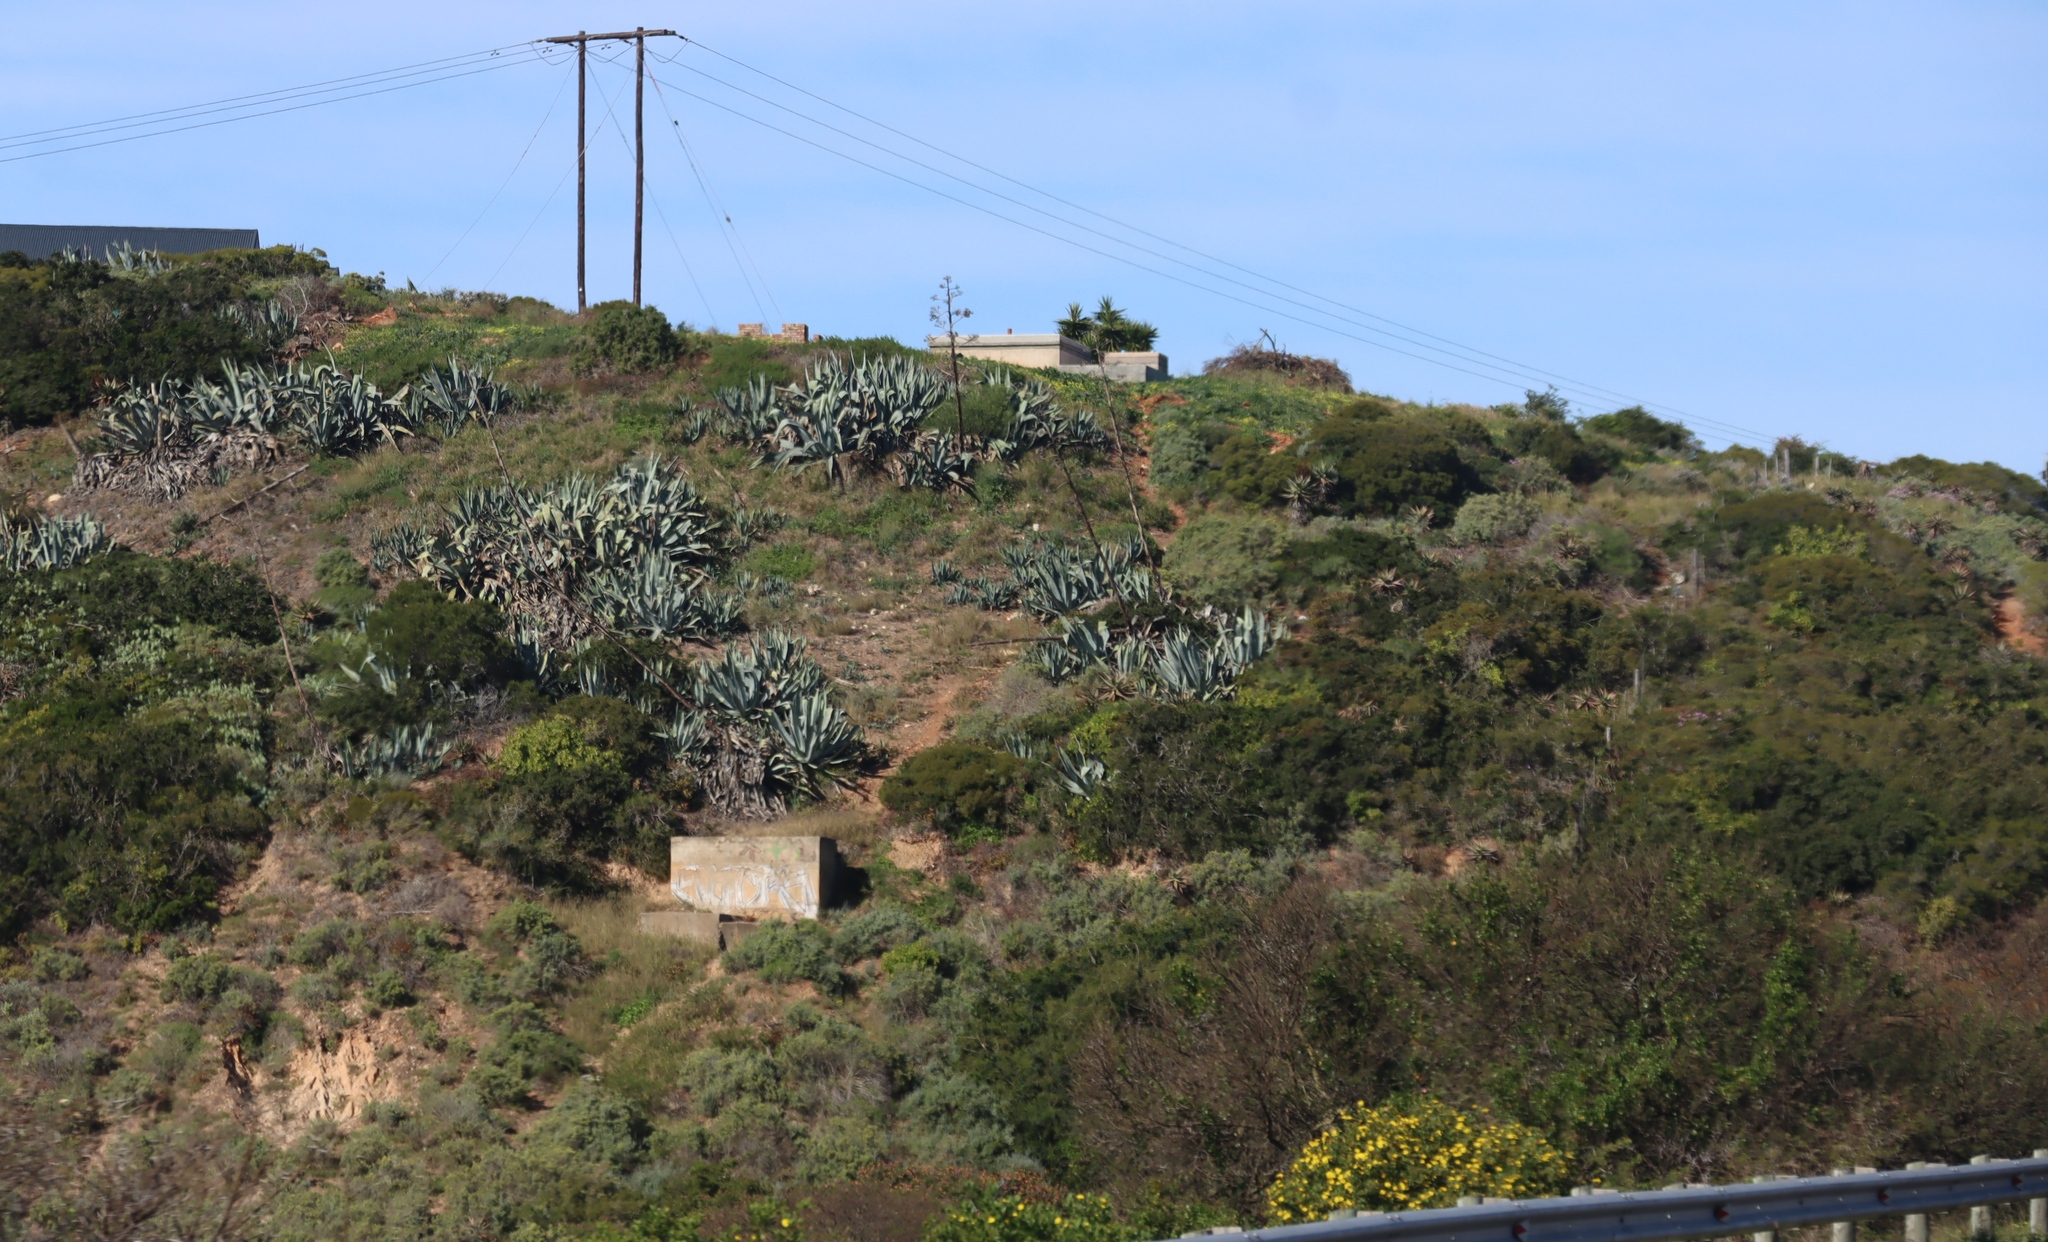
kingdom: Plantae
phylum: Tracheophyta
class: Liliopsida
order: Asparagales
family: Asparagaceae
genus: Agave
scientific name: Agave americana
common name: Centuryplant
